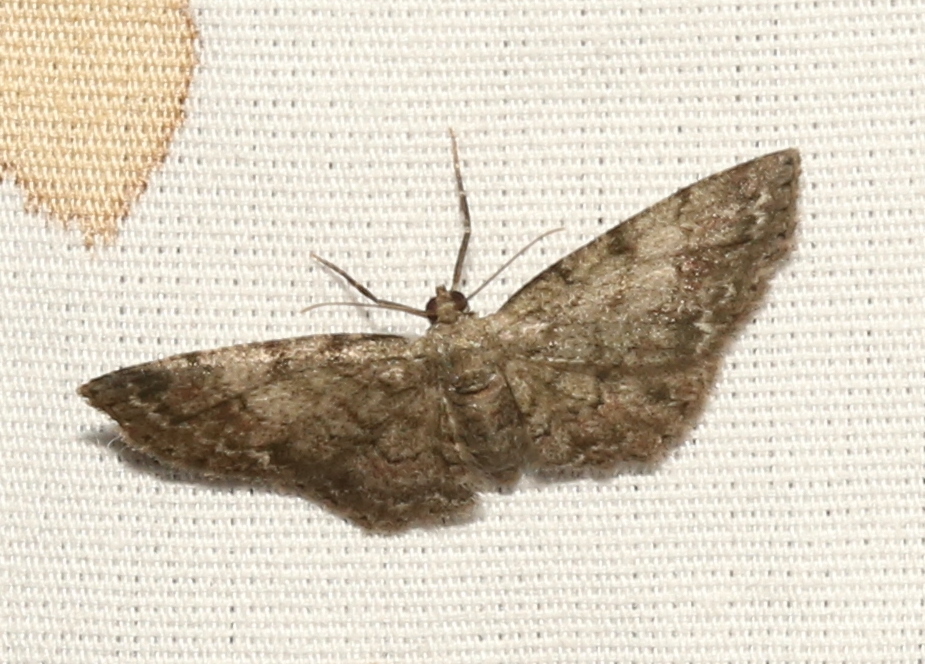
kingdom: Animalia
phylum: Arthropoda
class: Insecta
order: Lepidoptera
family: Geometridae
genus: Glenoides
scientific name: Glenoides texanaria
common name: Texas gray
